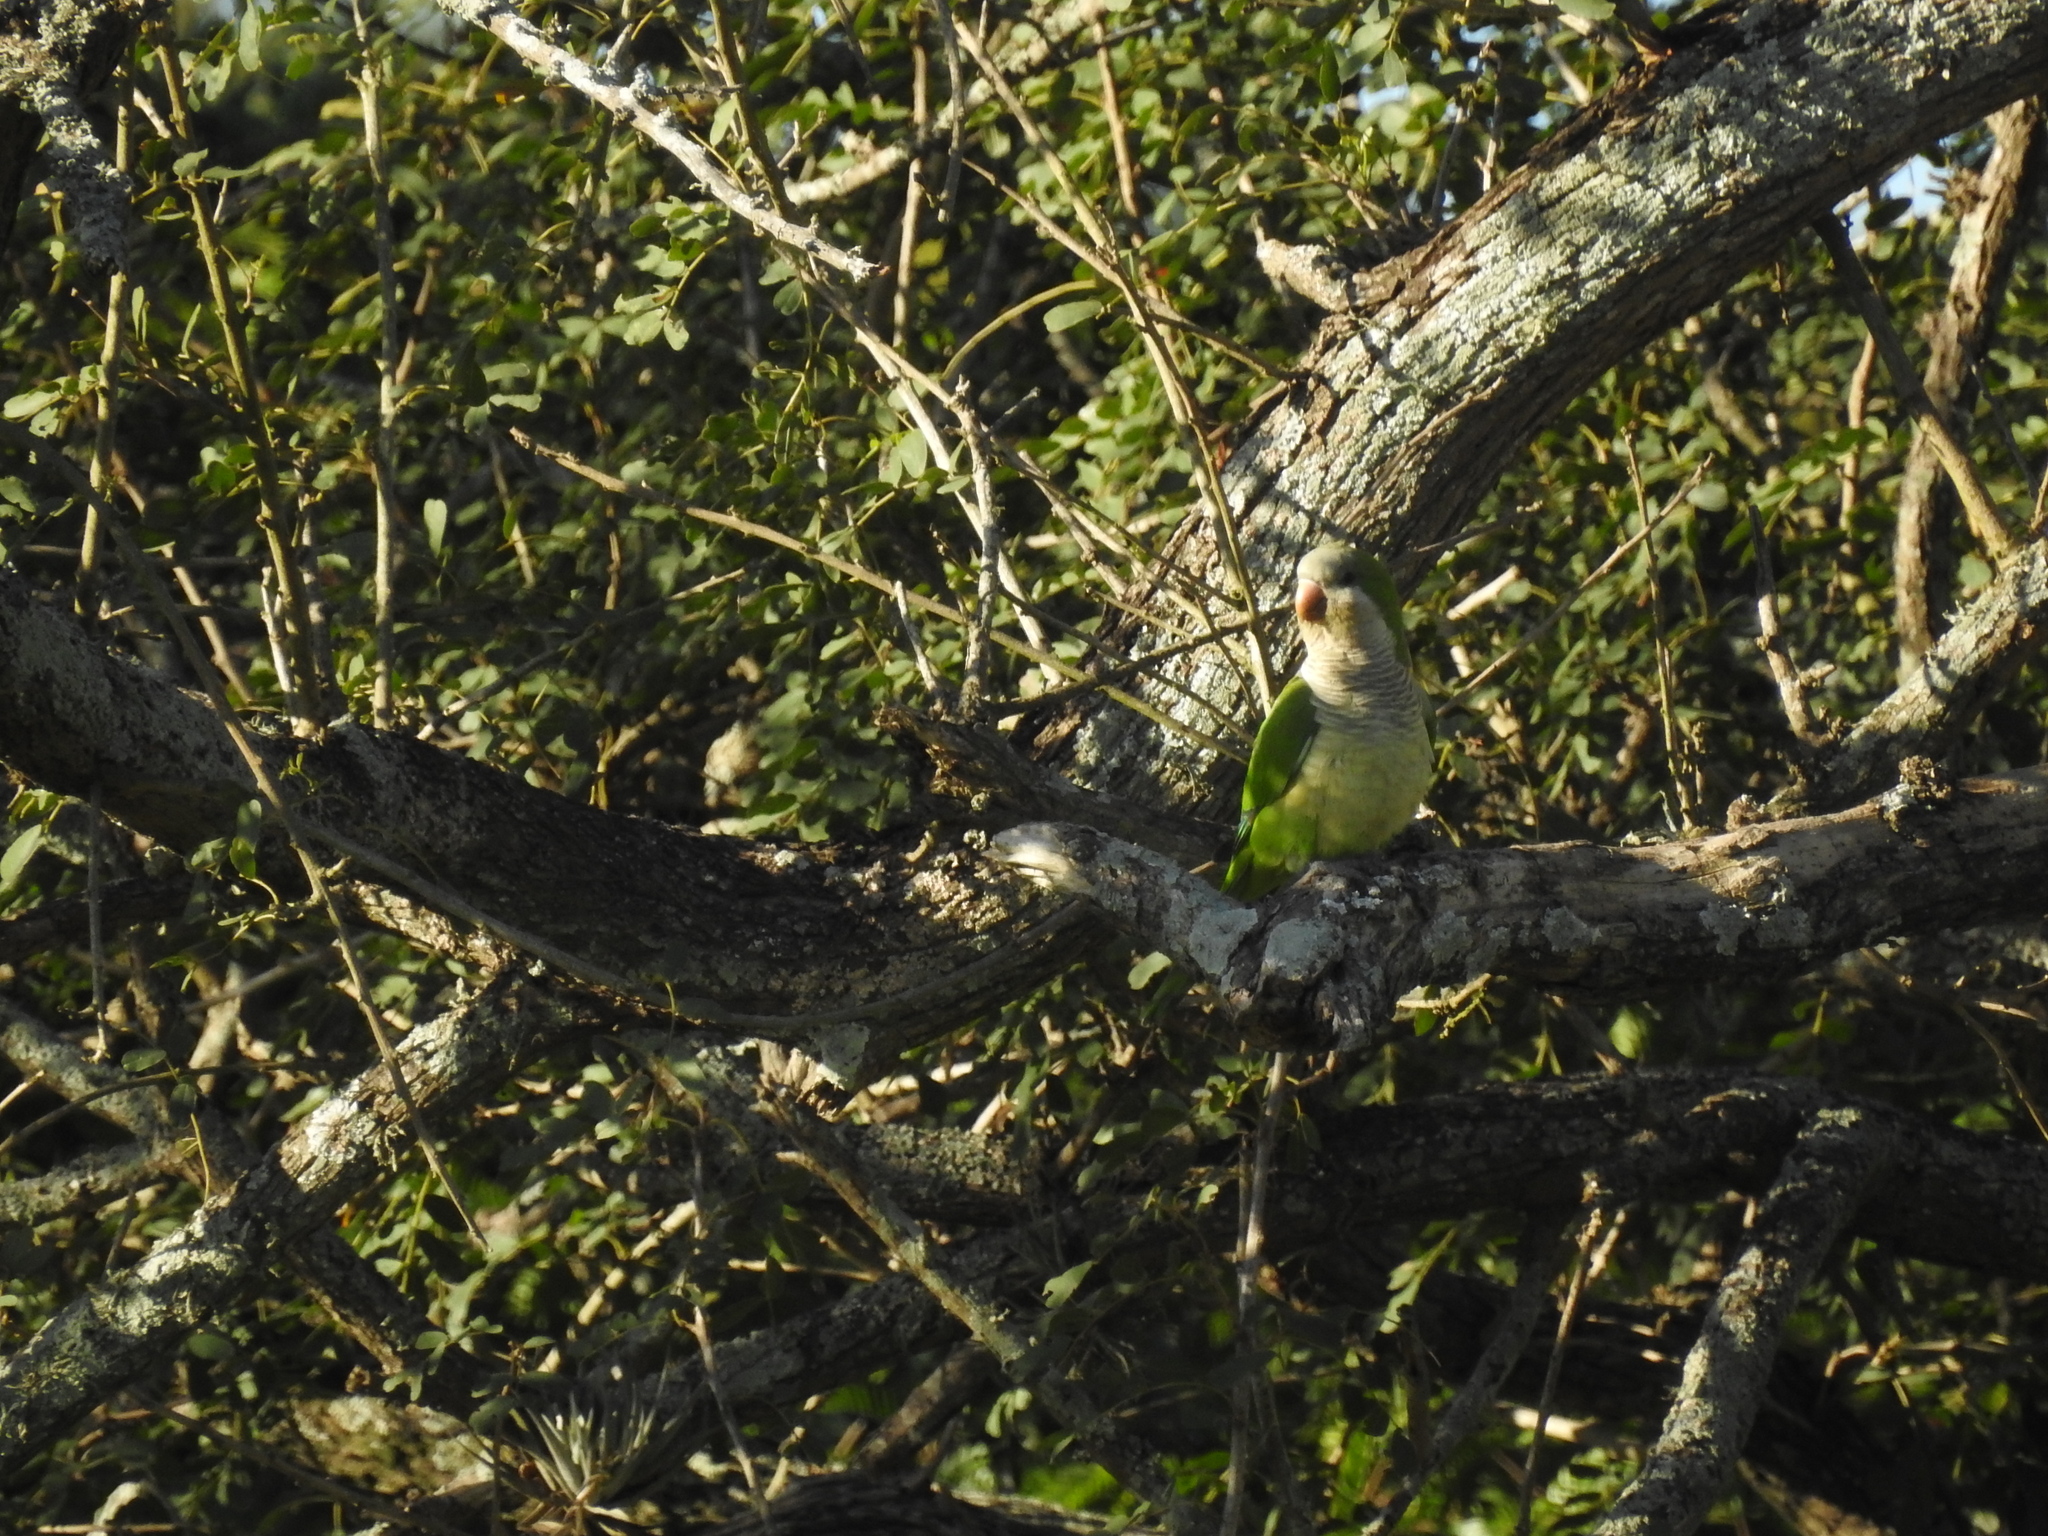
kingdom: Animalia
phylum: Chordata
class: Aves
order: Psittaciformes
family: Psittacidae
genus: Myiopsitta
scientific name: Myiopsitta monachus
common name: Monk parakeet
